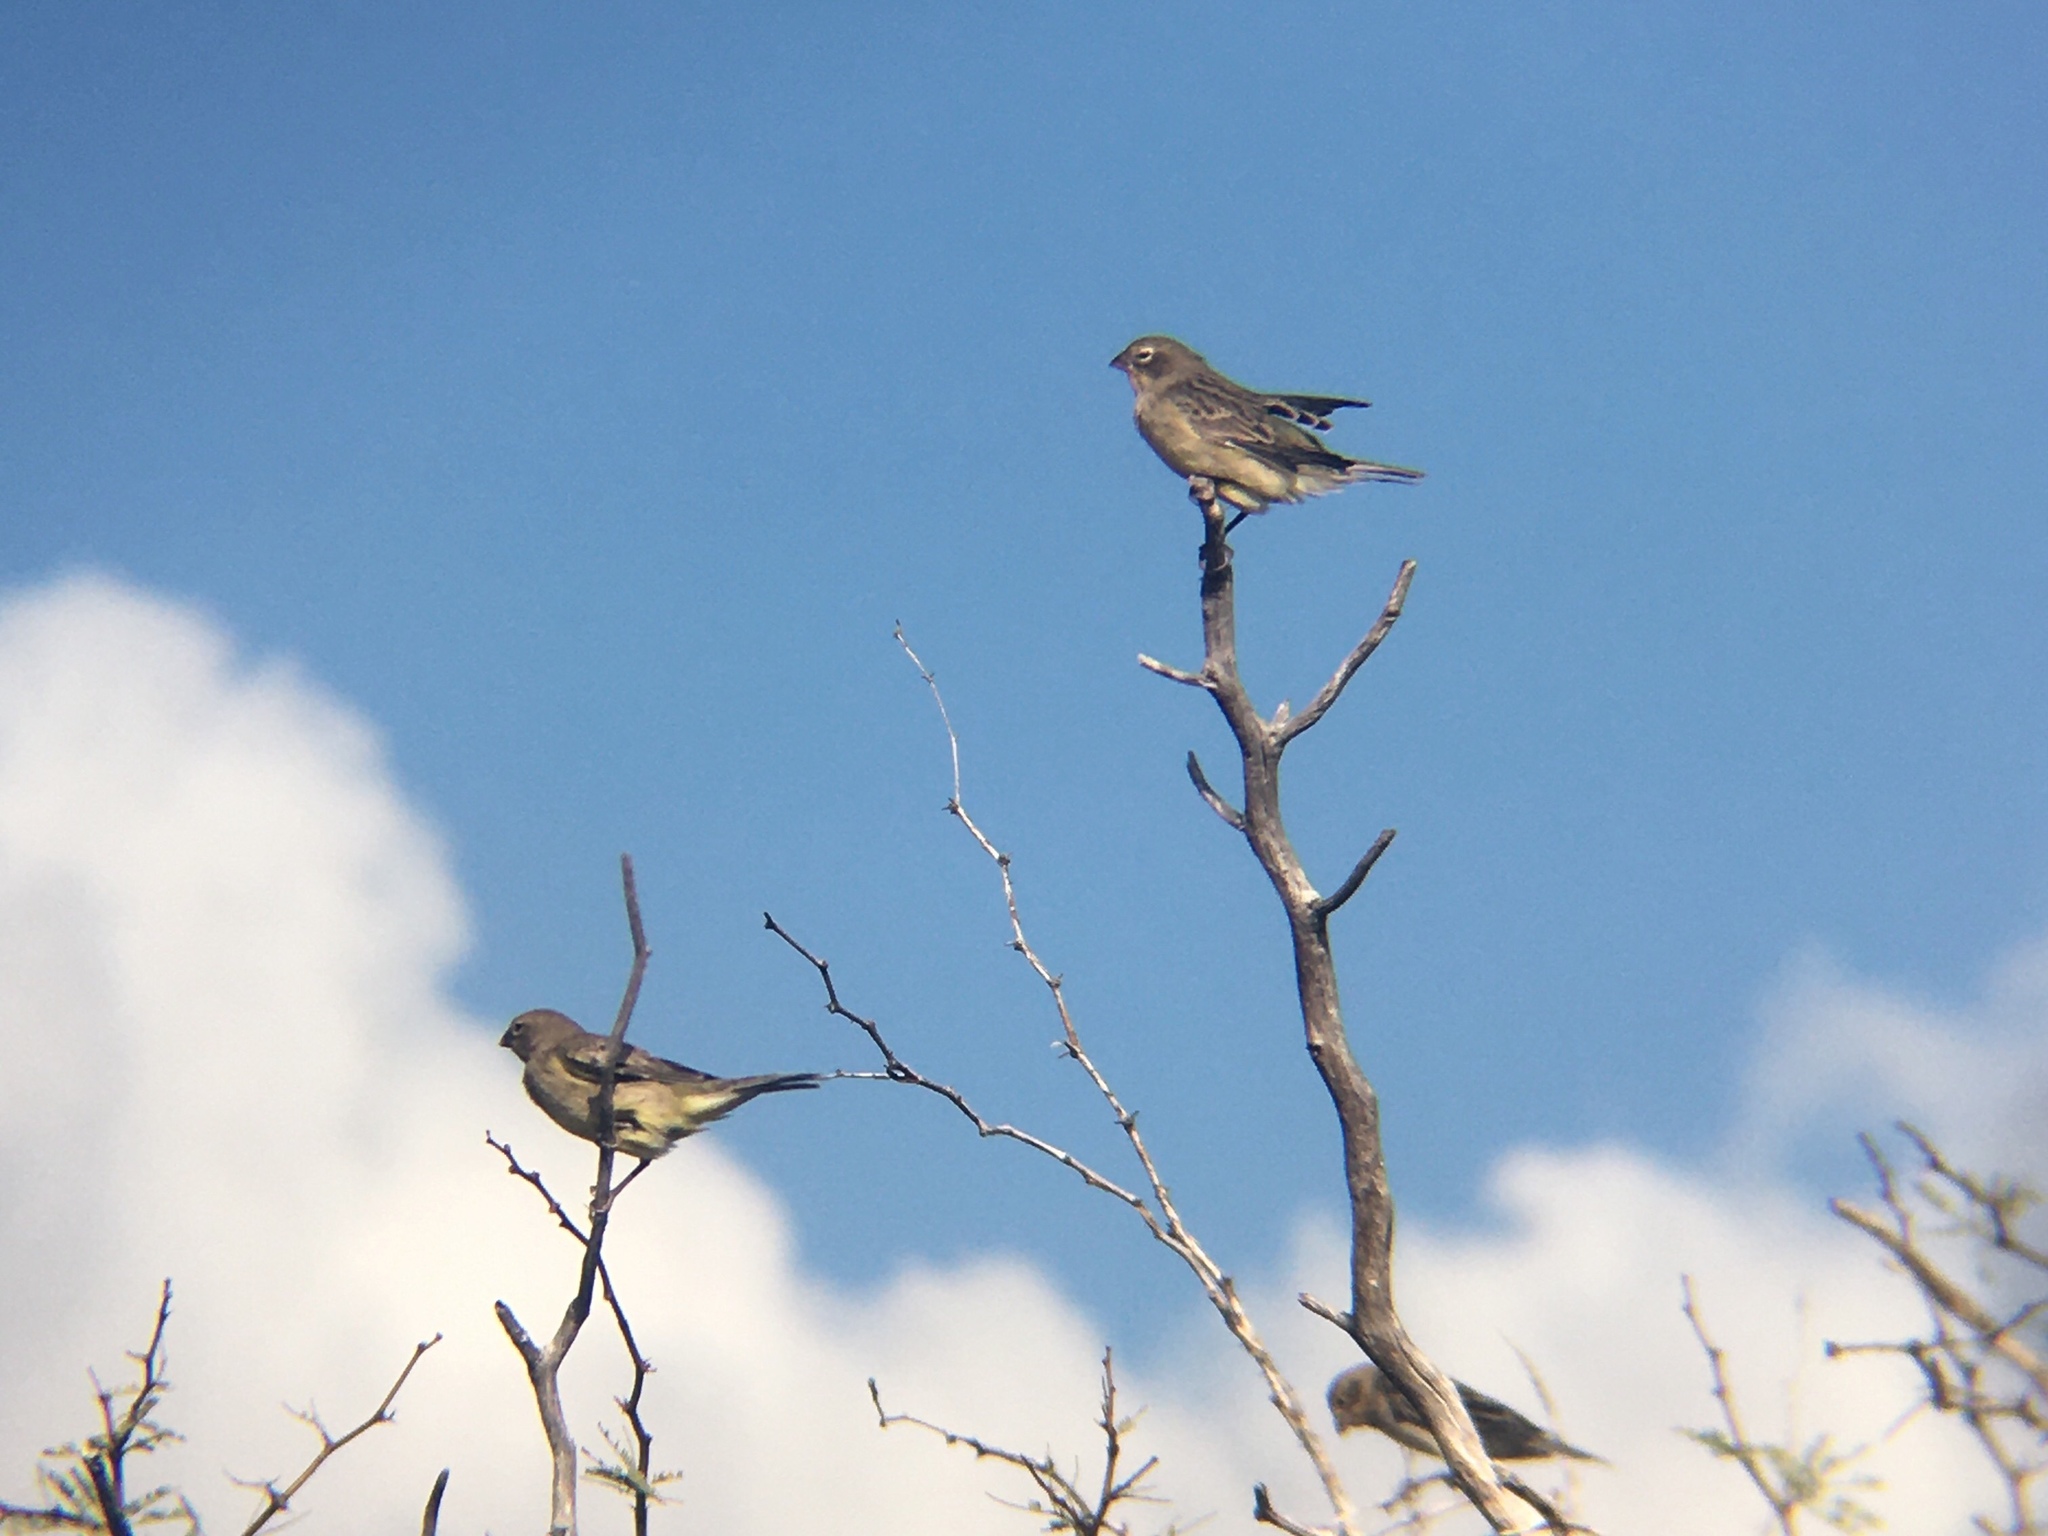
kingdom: Animalia
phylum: Chordata
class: Aves
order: Passeriformes
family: Thraupidae
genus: Sicalis
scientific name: Sicalis luteola
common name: Grassland yellow-finch
